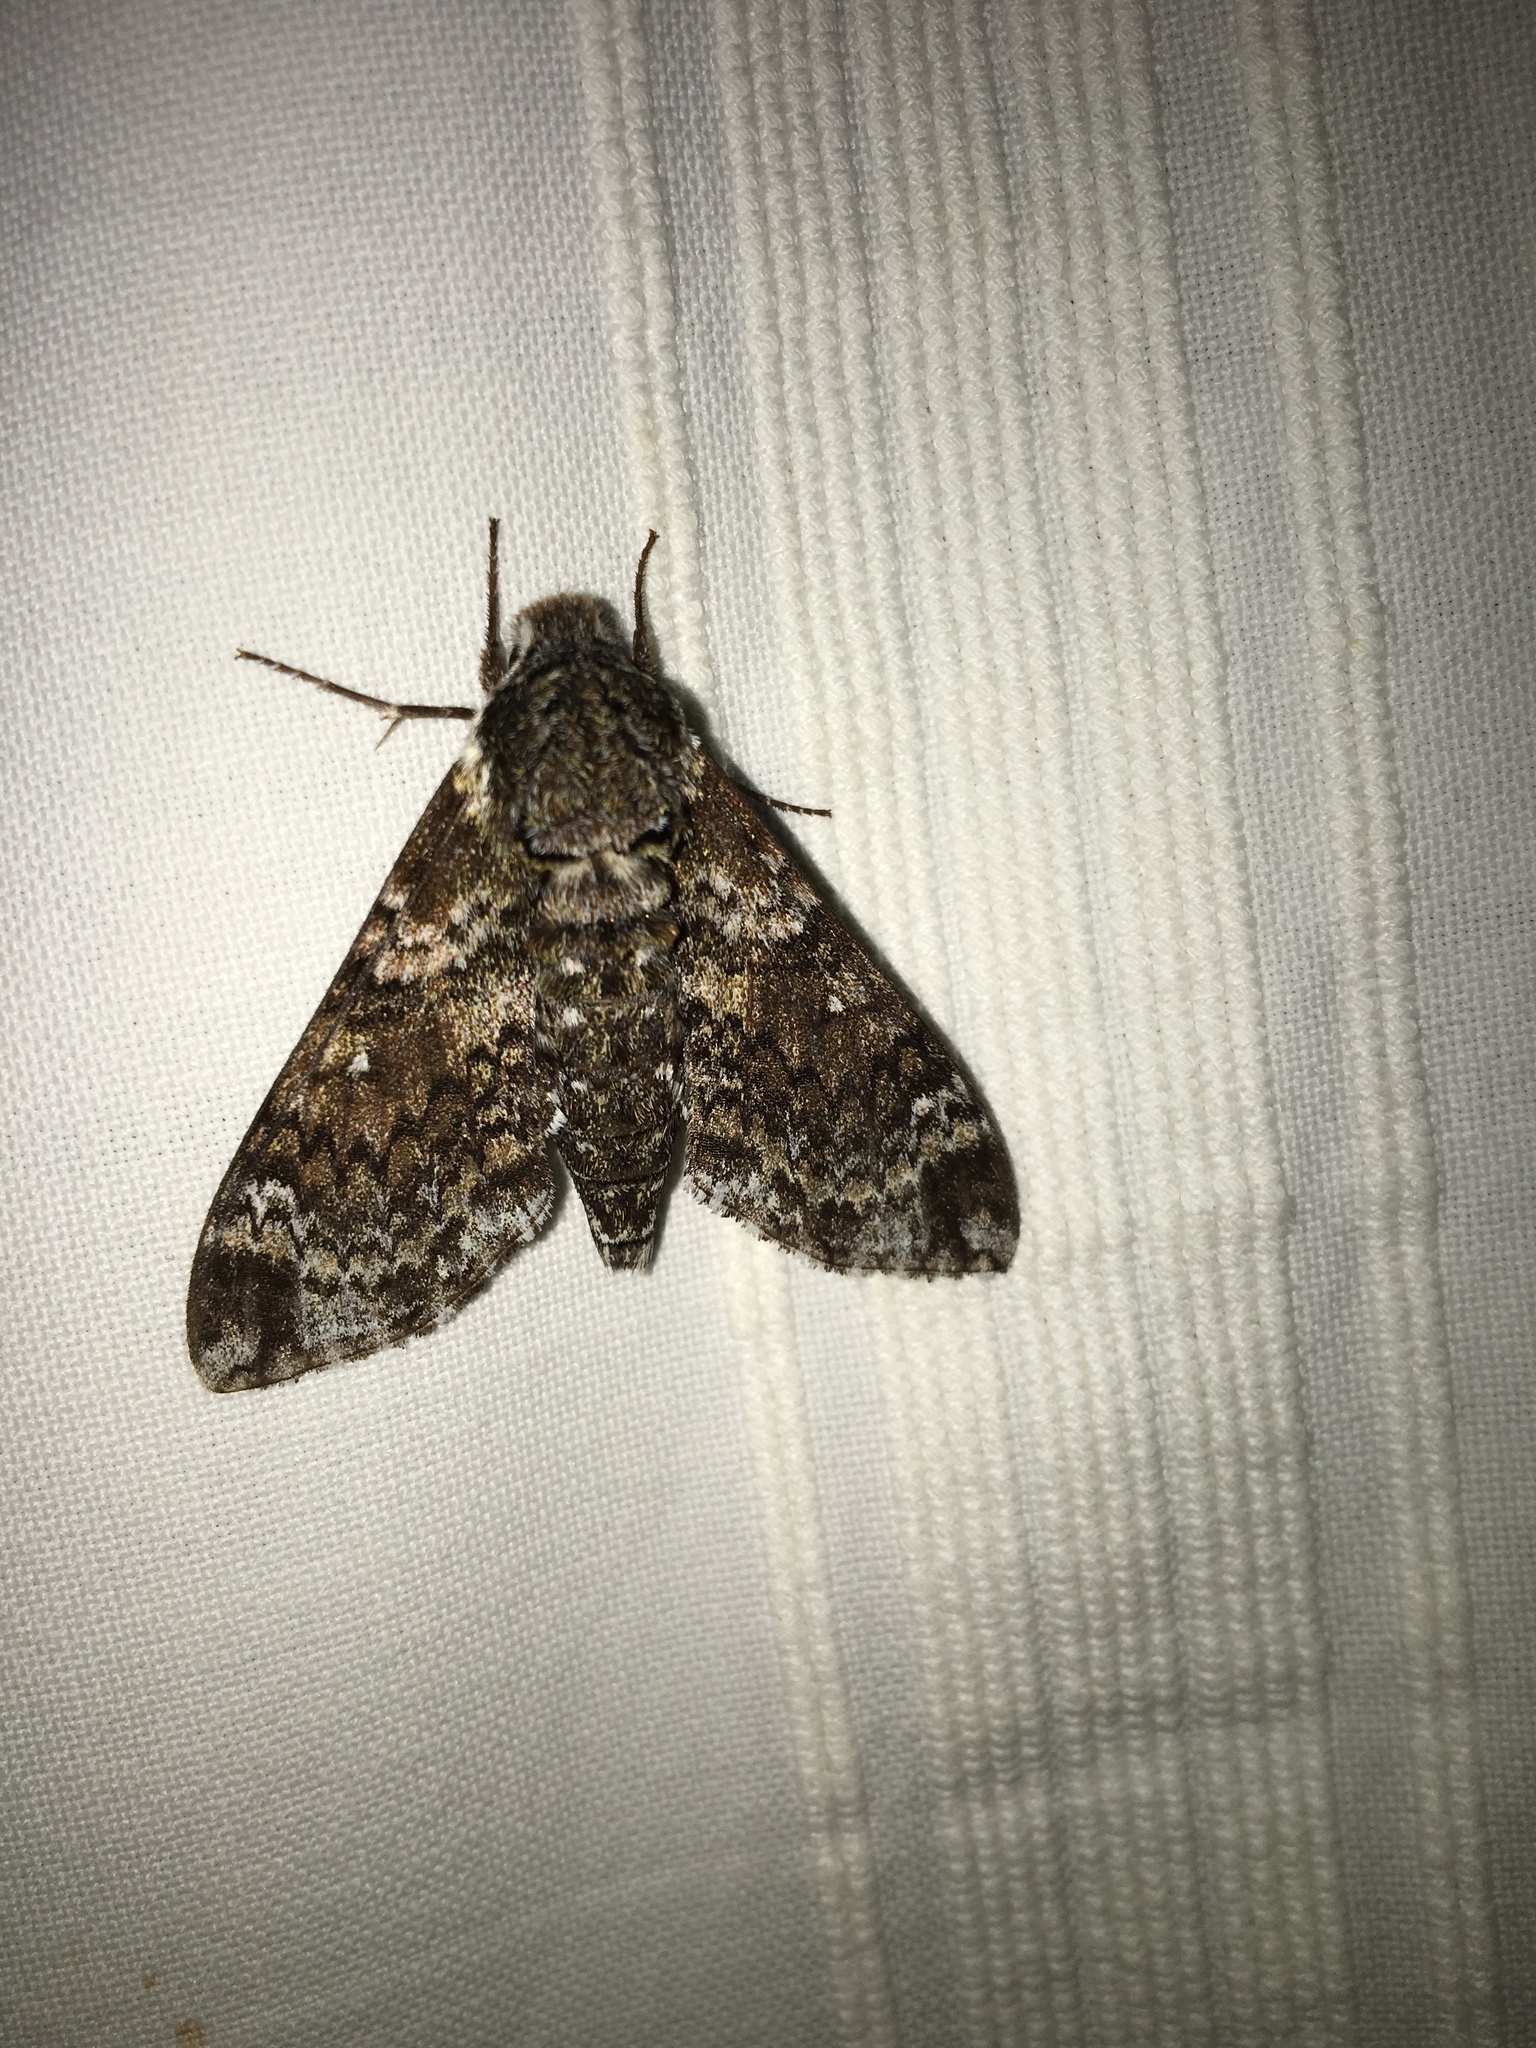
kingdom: Animalia
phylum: Arthropoda
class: Insecta
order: Lepidoptera
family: Sphingidae
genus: Dolba
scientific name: Dolba hyloeus
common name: Pawpaw sphinx
